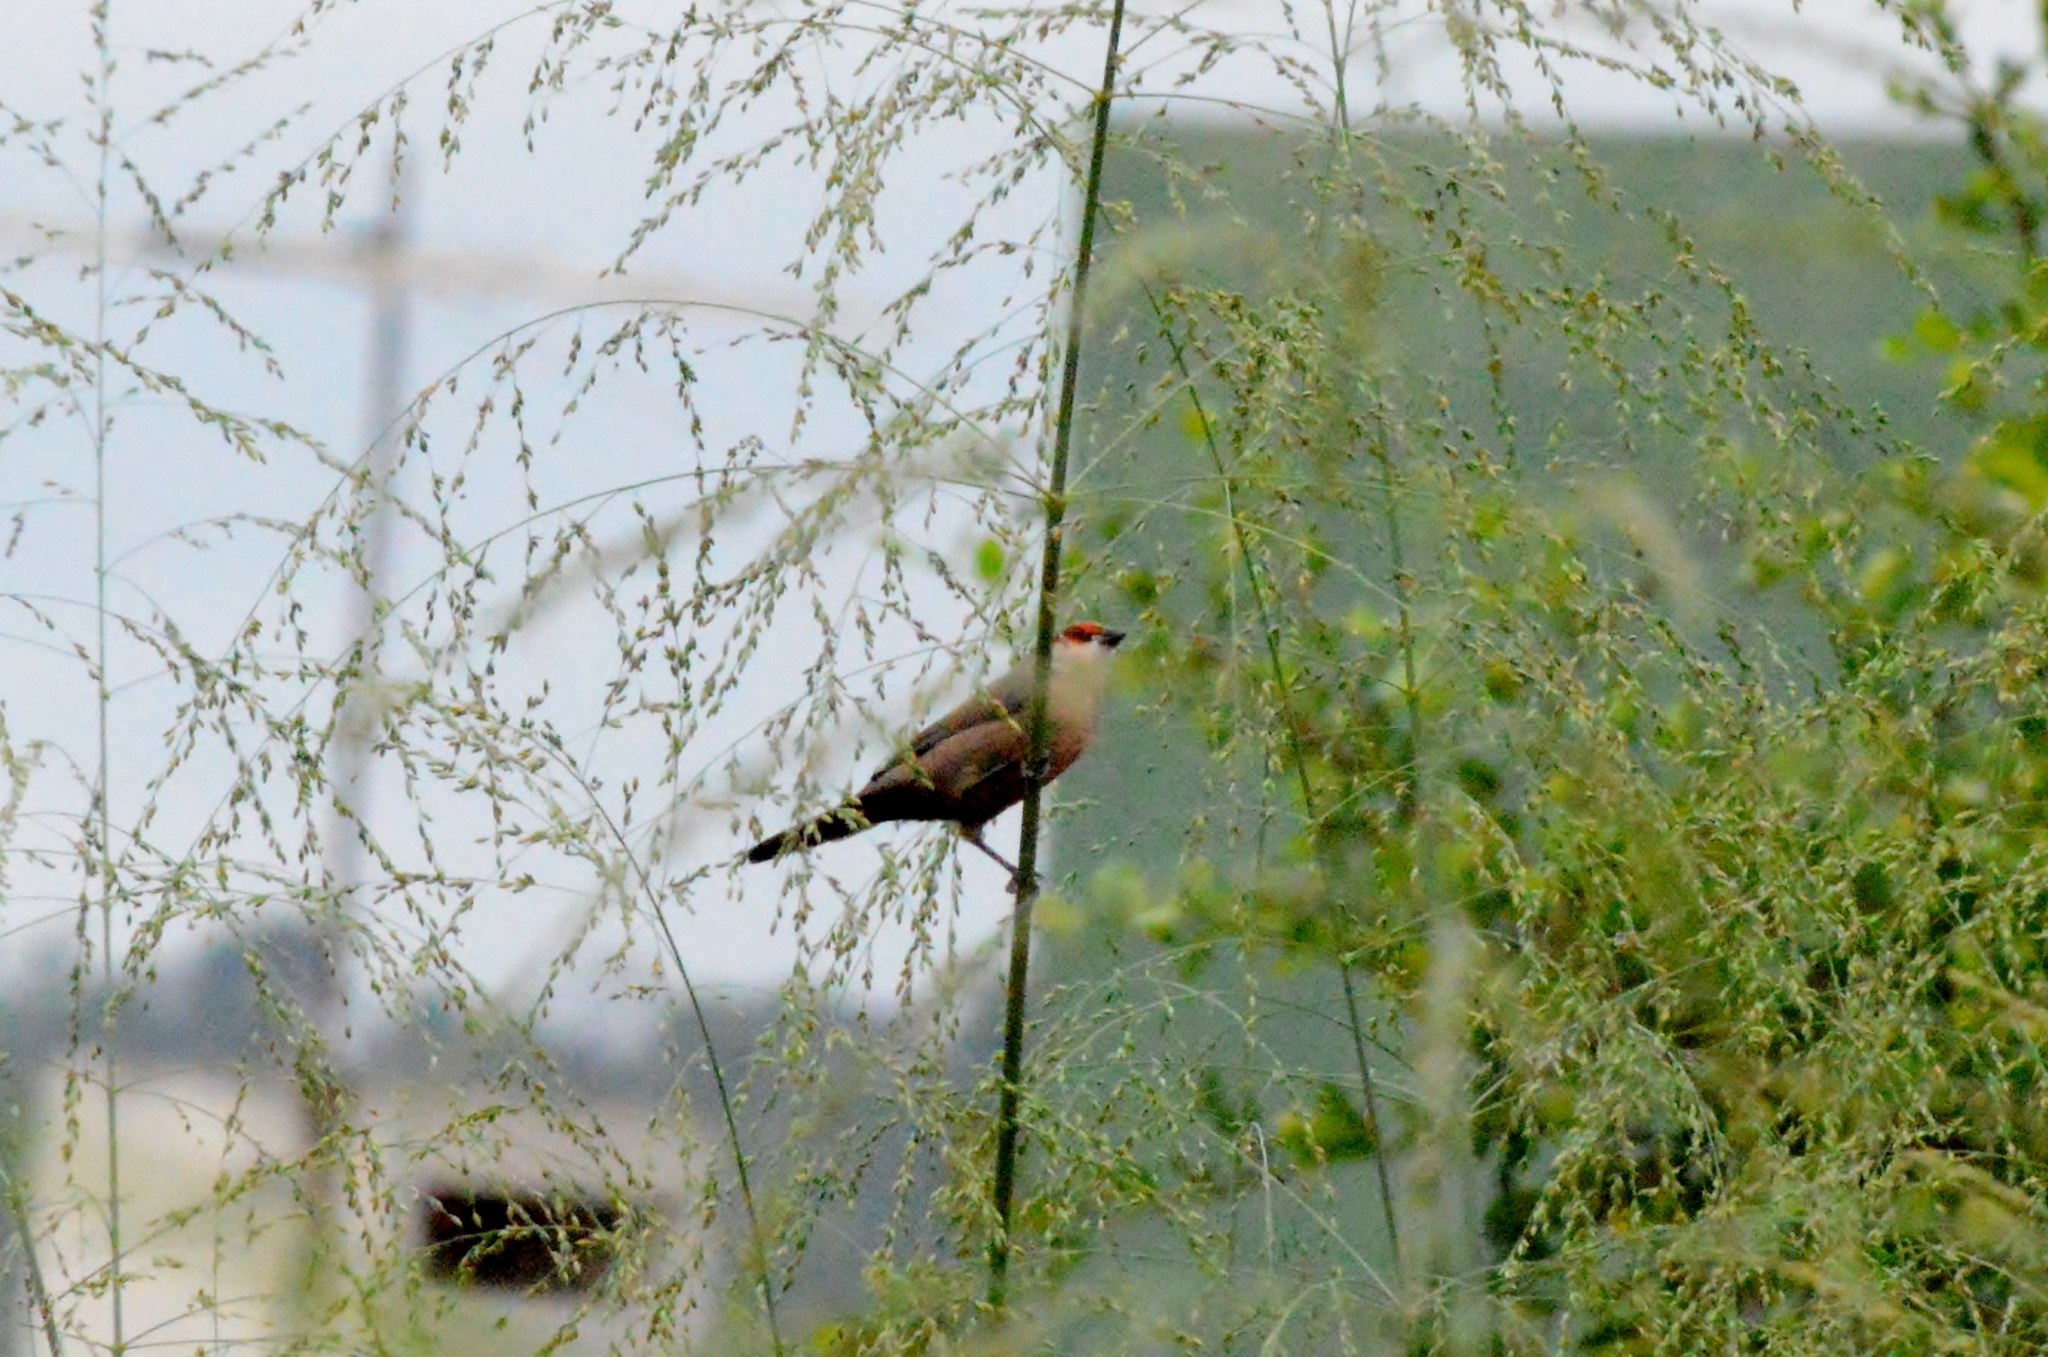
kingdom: Animalia
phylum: Chordata
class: Aves
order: Passeriformes
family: Estrildidae
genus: Estrilda
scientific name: Estrilda astrild
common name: Common waxbill
